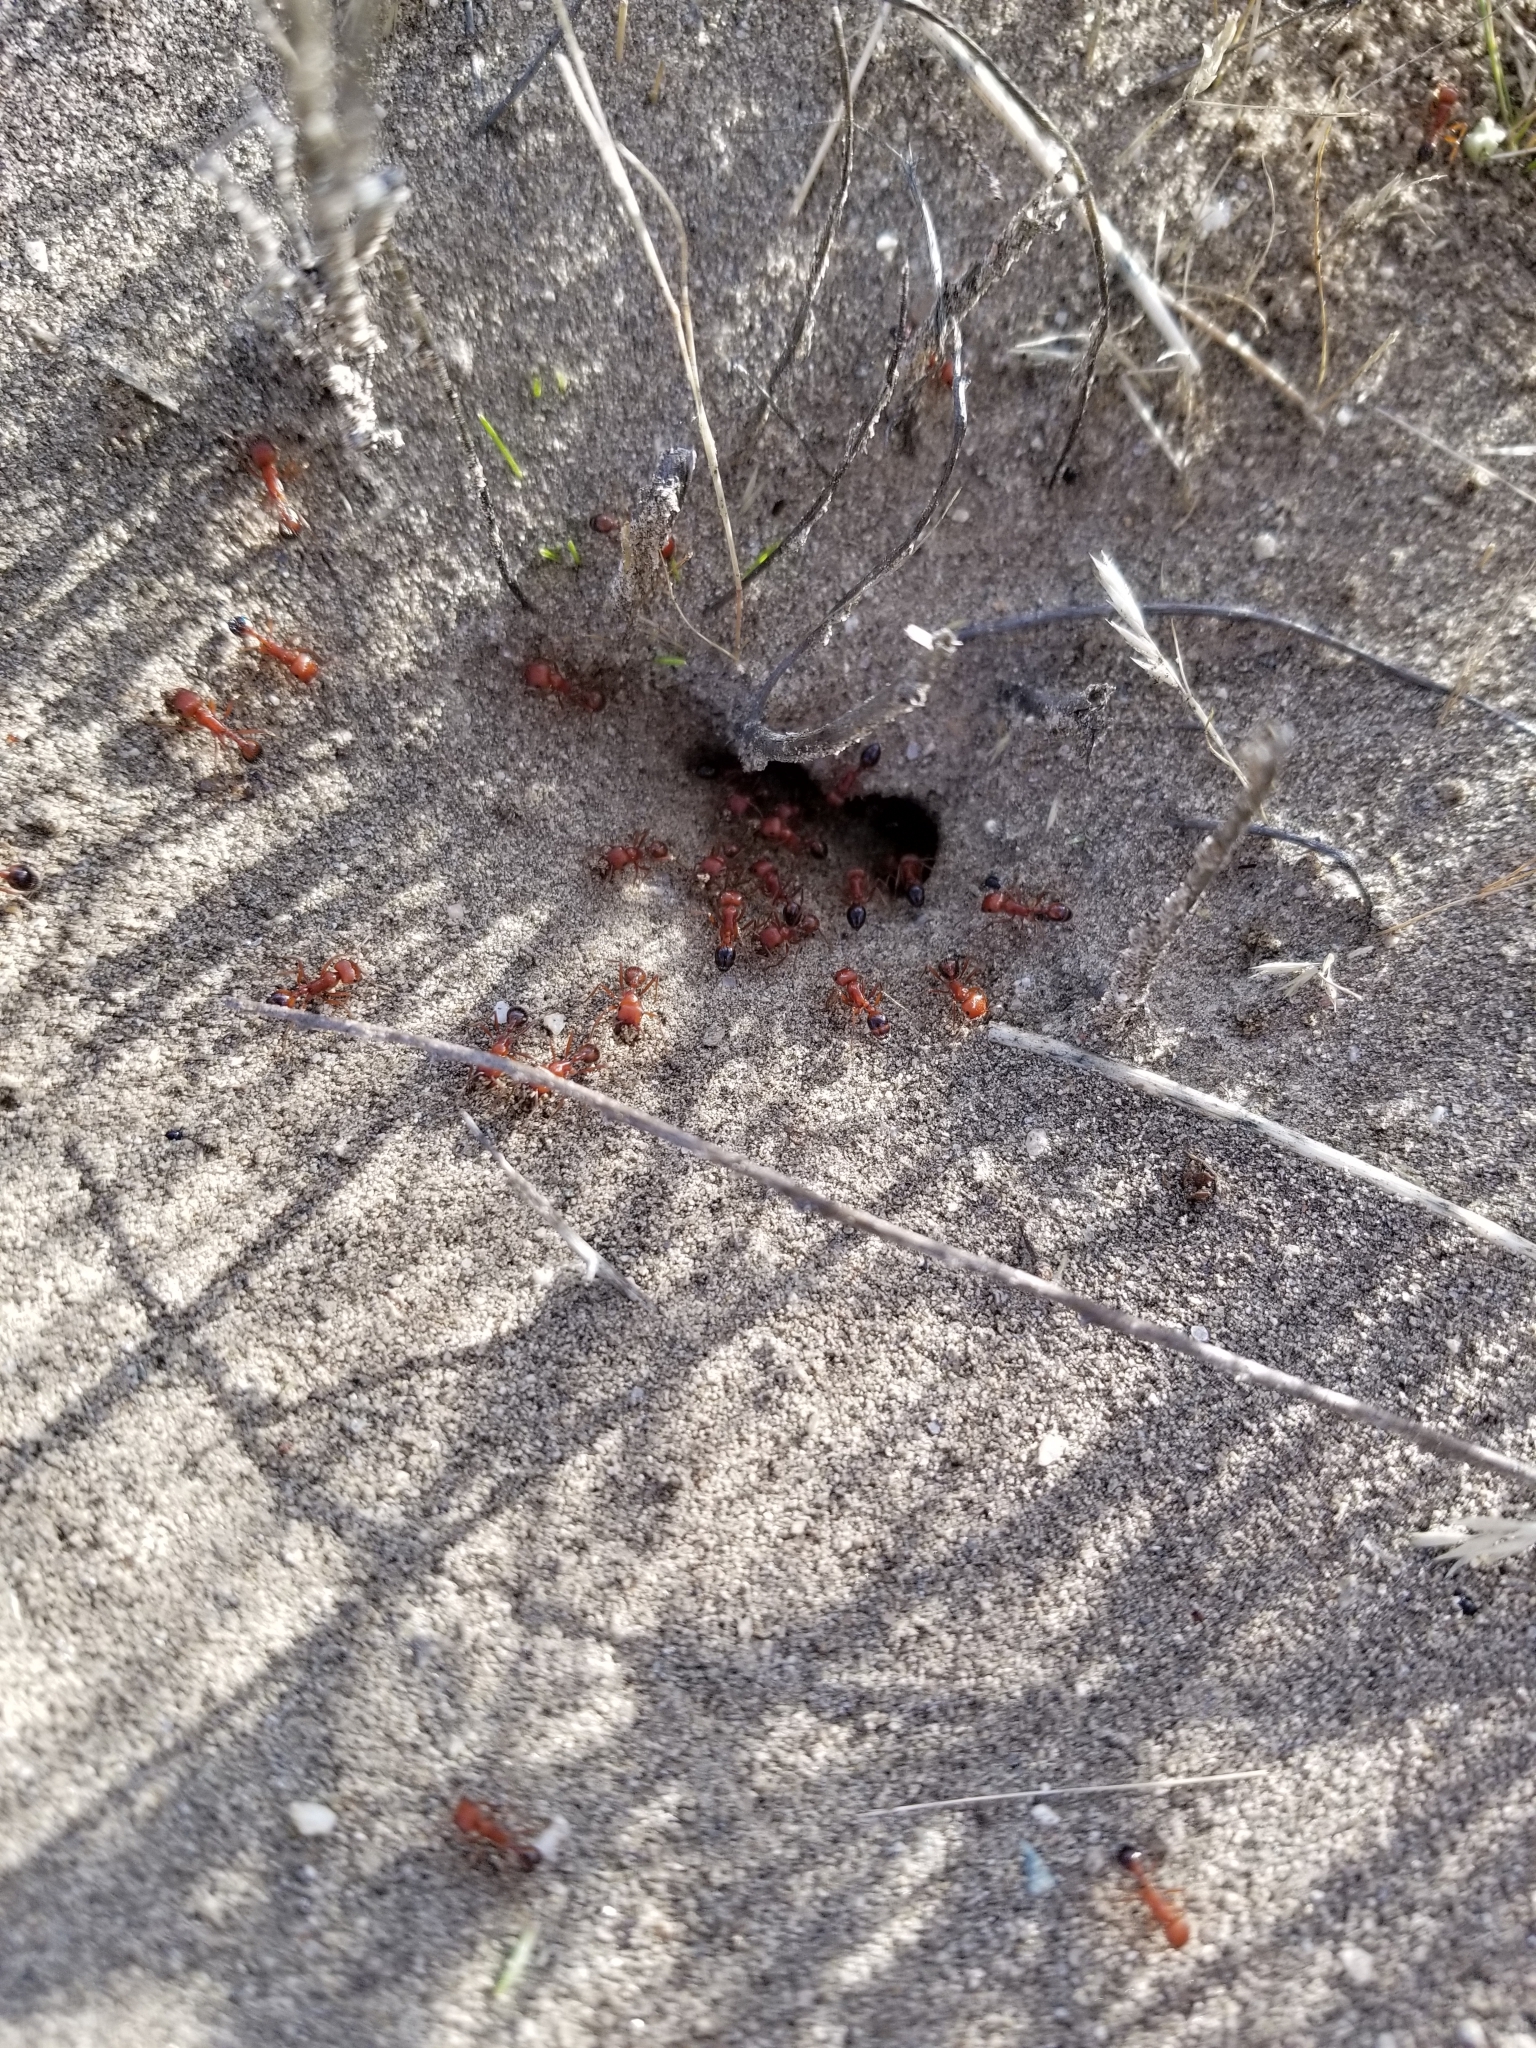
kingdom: Animalia
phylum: Arthropoda
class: Insecta
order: Hymenoptera
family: Formicidae
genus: Pogonomyrmex
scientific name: Pogonomyrmex californicus
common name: California harvester ant
